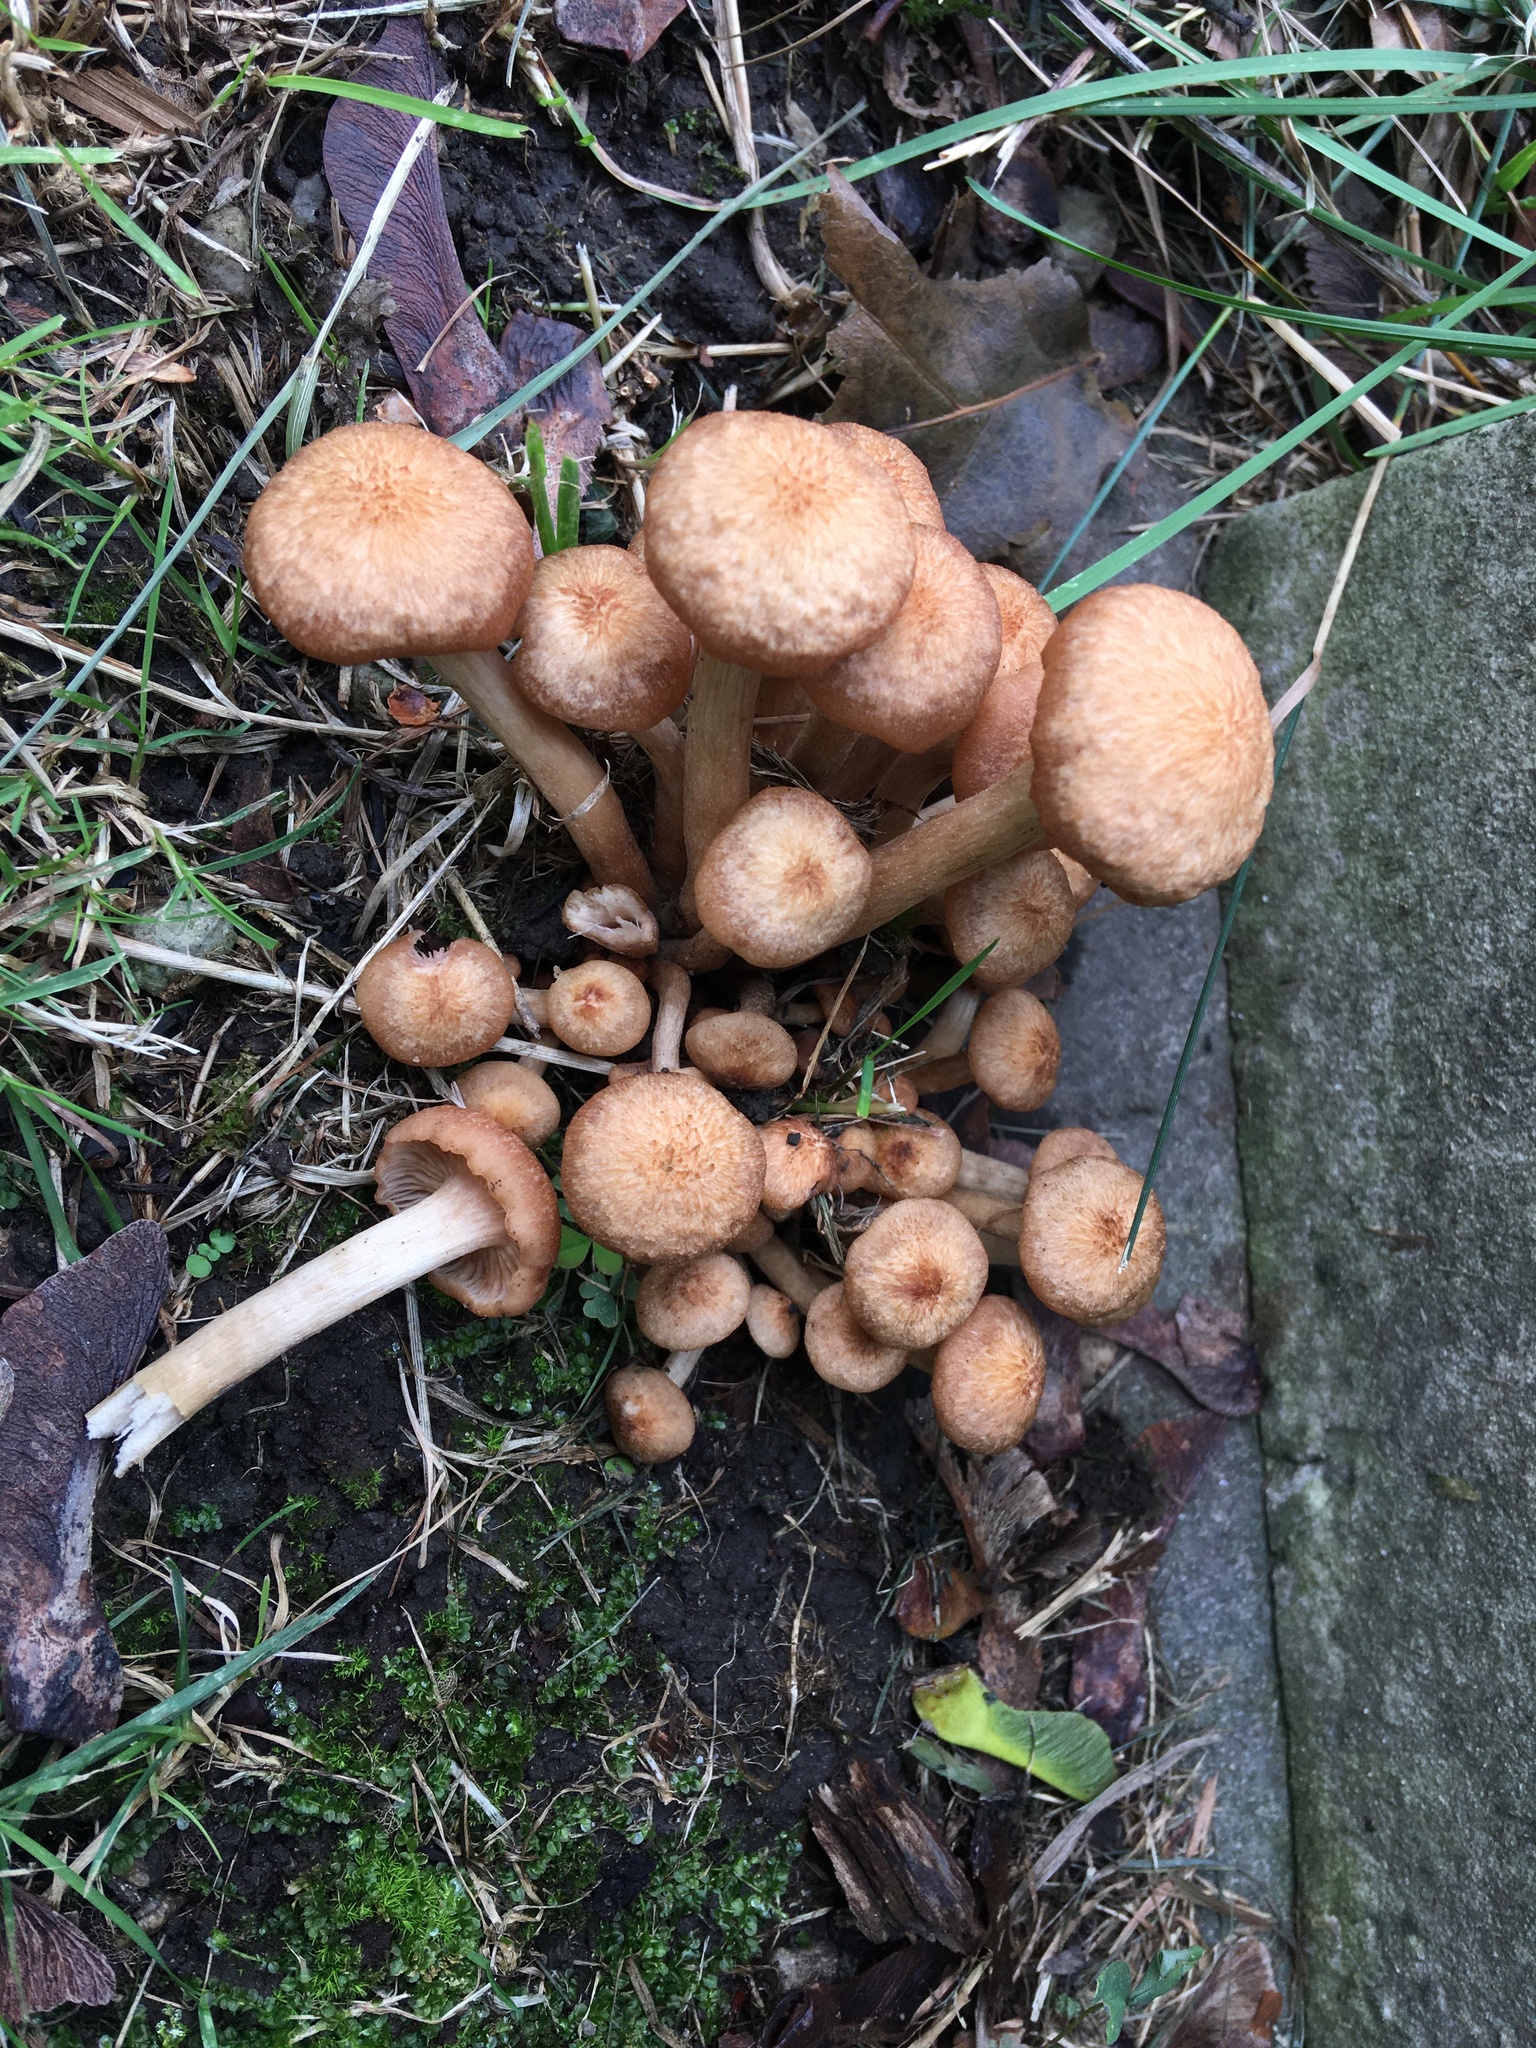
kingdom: Fungi
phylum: Basidiomycota
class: Agaricomycetes
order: Agaricales
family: Physalacriaceae
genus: Desarmillaria
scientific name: Desarmillaria caespitosa
